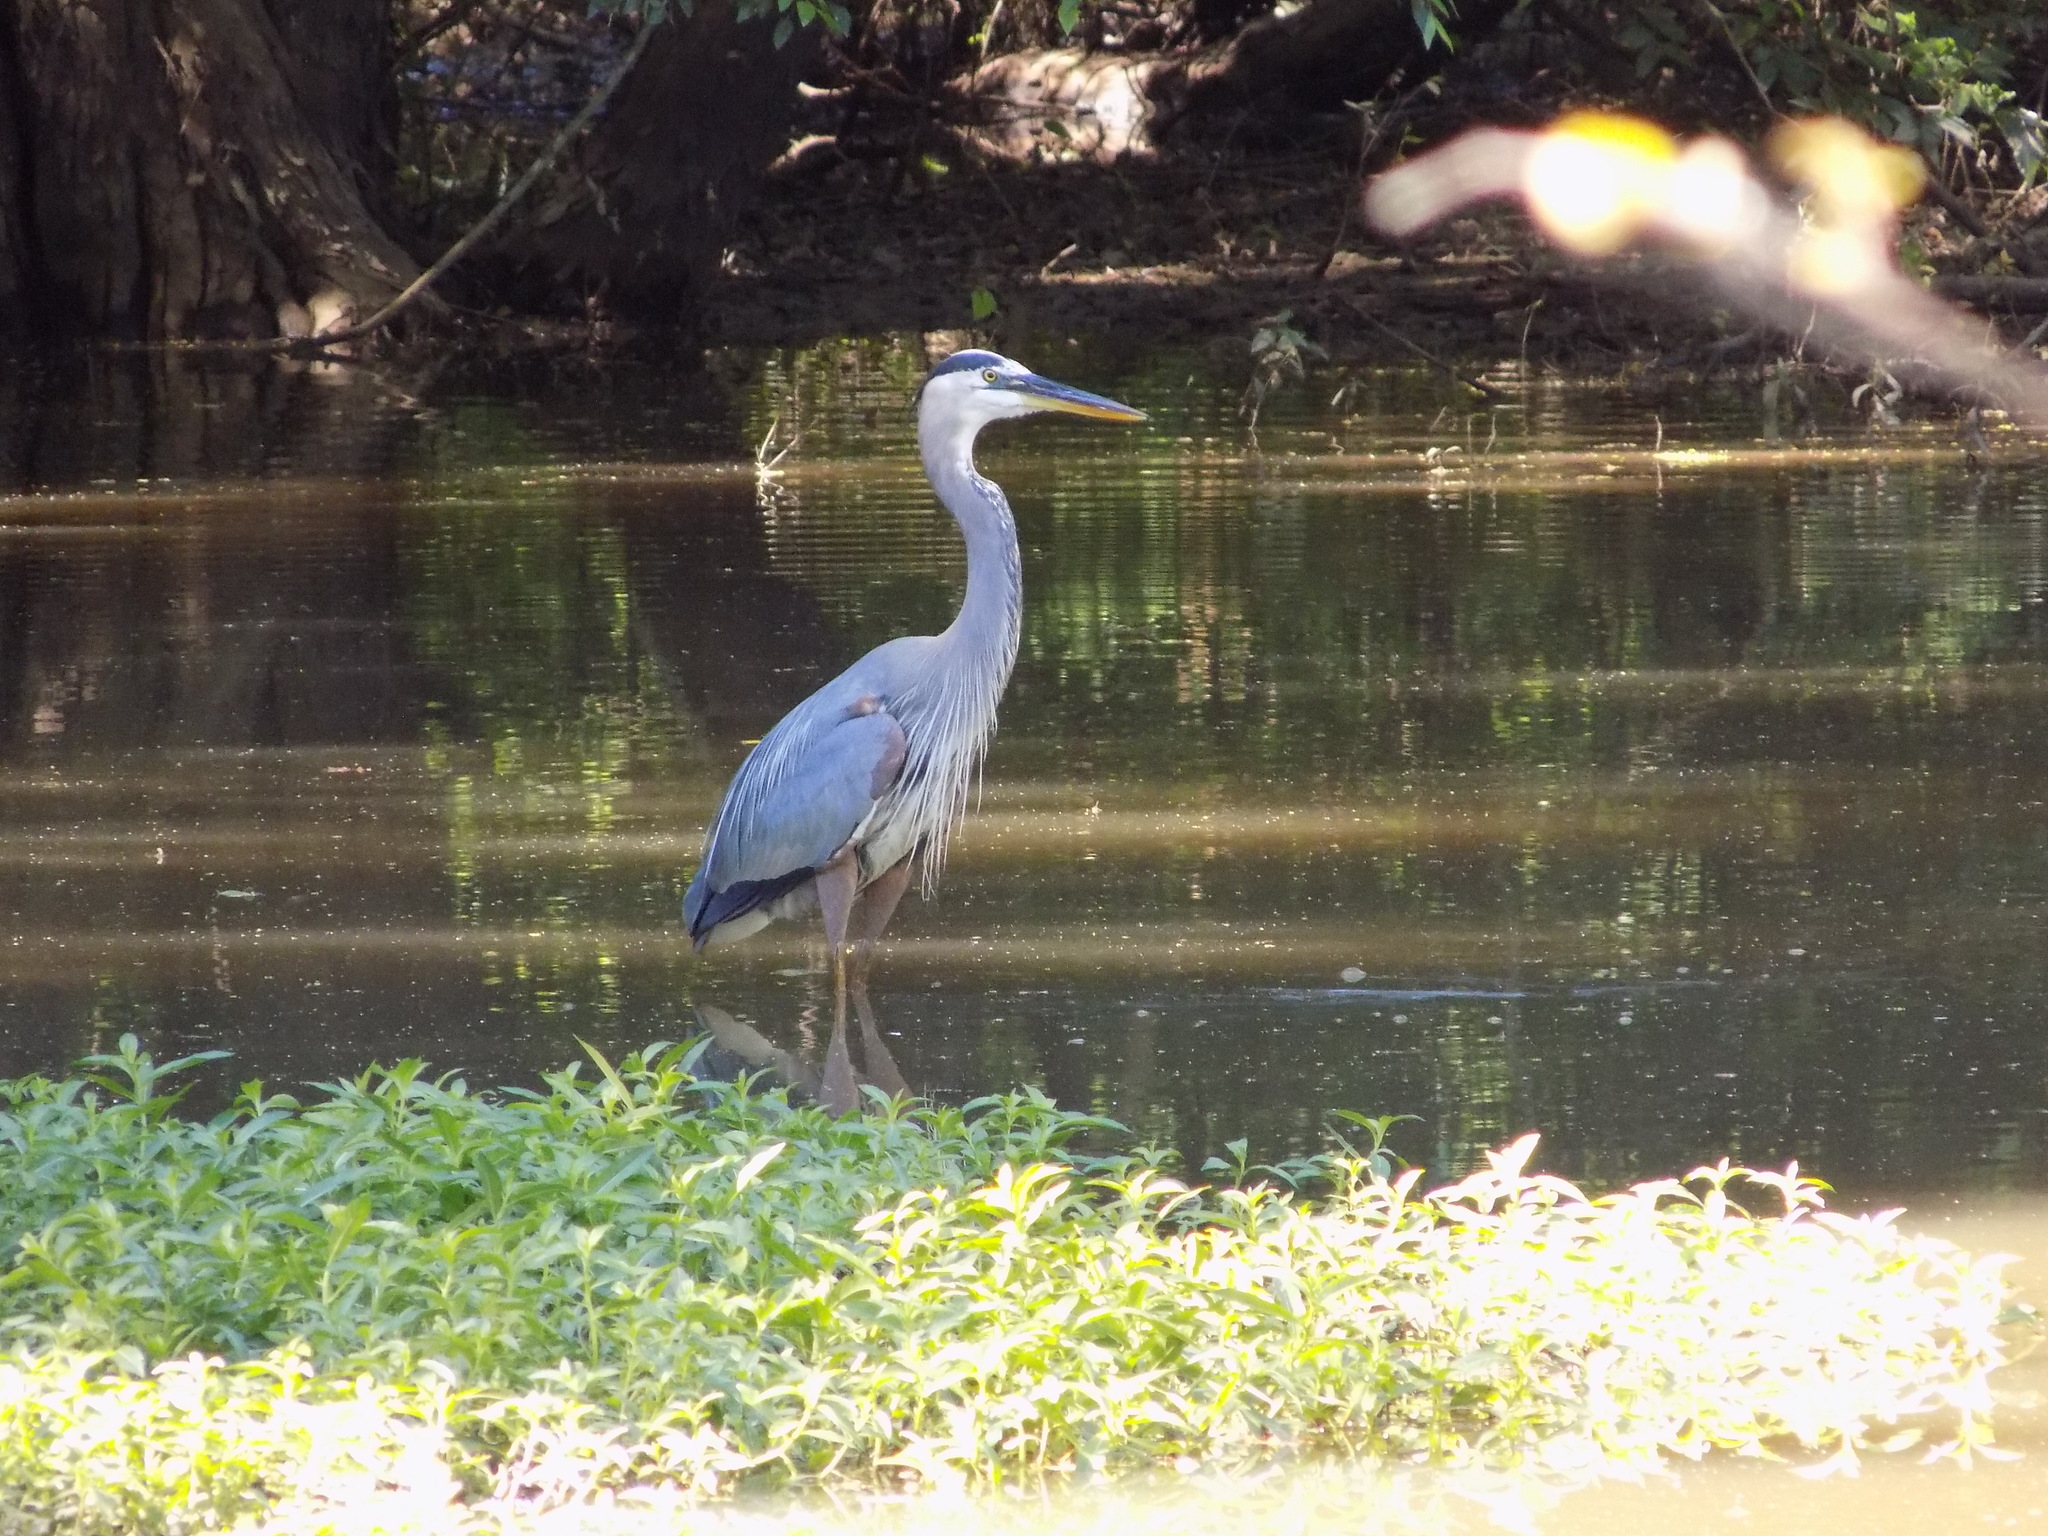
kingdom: Animalia
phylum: Chordata
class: Aves
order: Pelecaniformes
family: Ardeidae
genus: Ardea
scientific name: Ardea herodias
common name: Great blue heron
